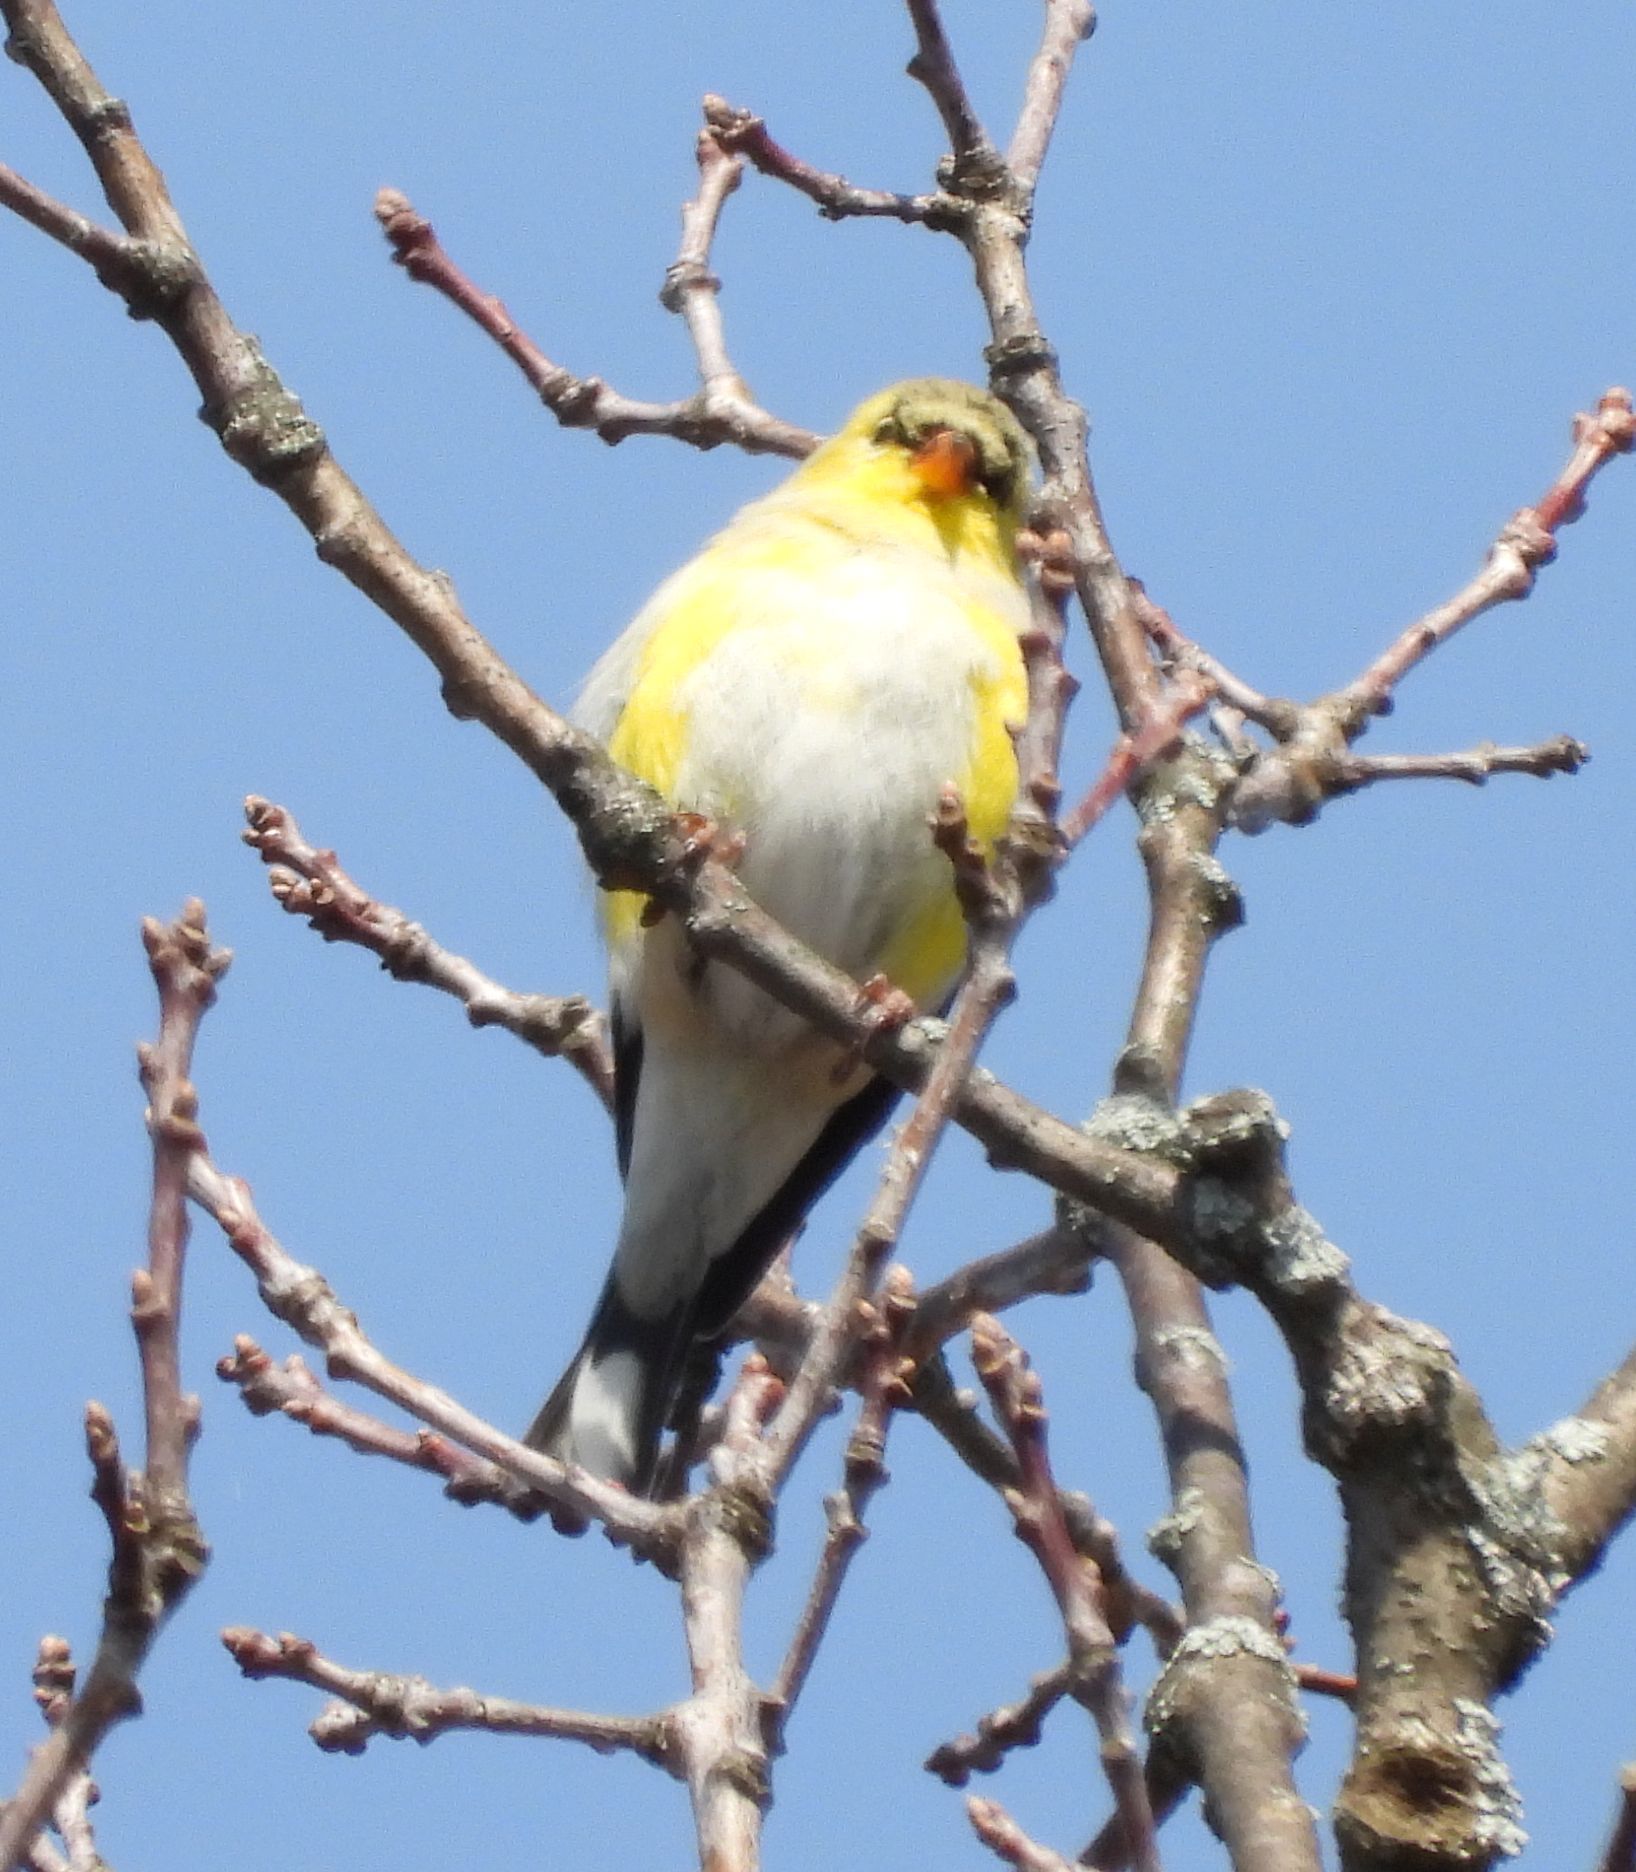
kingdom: Animalia
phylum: Chordata
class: Aves
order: Passeriformes
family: Fringillidae
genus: Spinus
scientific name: Spinus tristis
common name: American goldfinch
